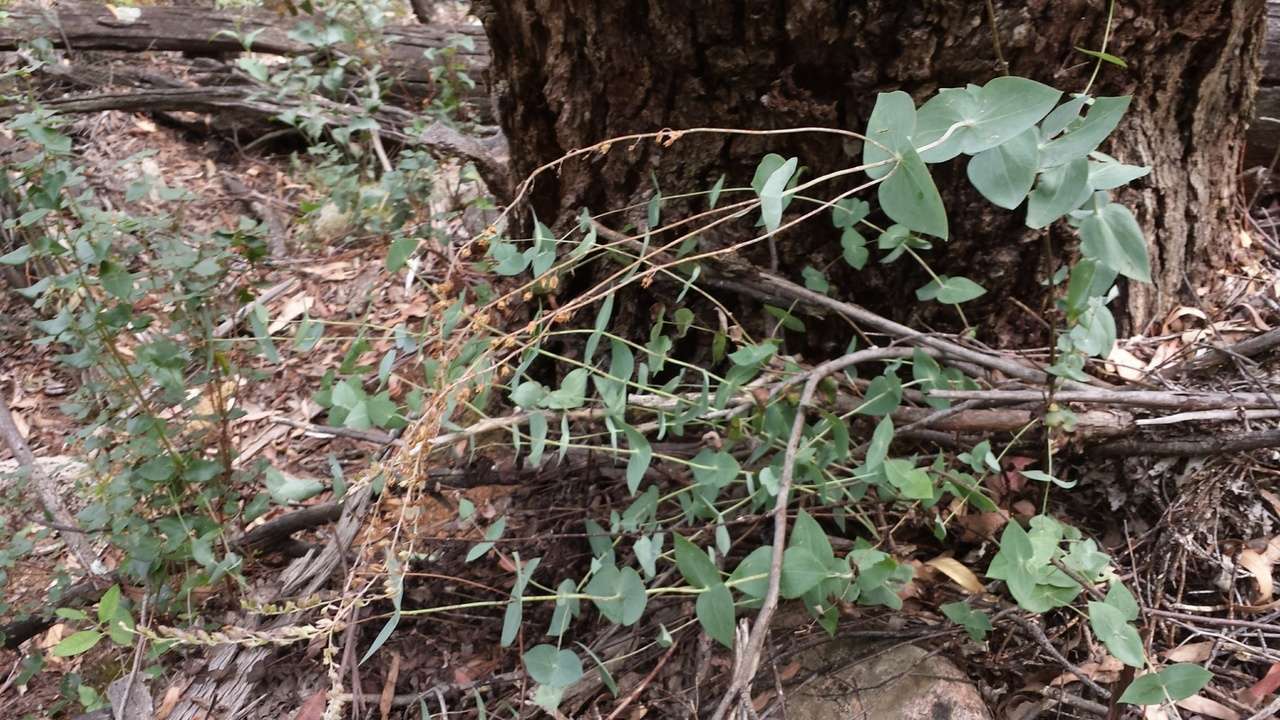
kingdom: Plantae
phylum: Tracheophyta
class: Magnoliopsida
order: Lamiales
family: Plantaginaceae
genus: Veronica
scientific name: Veronica perfoliata
